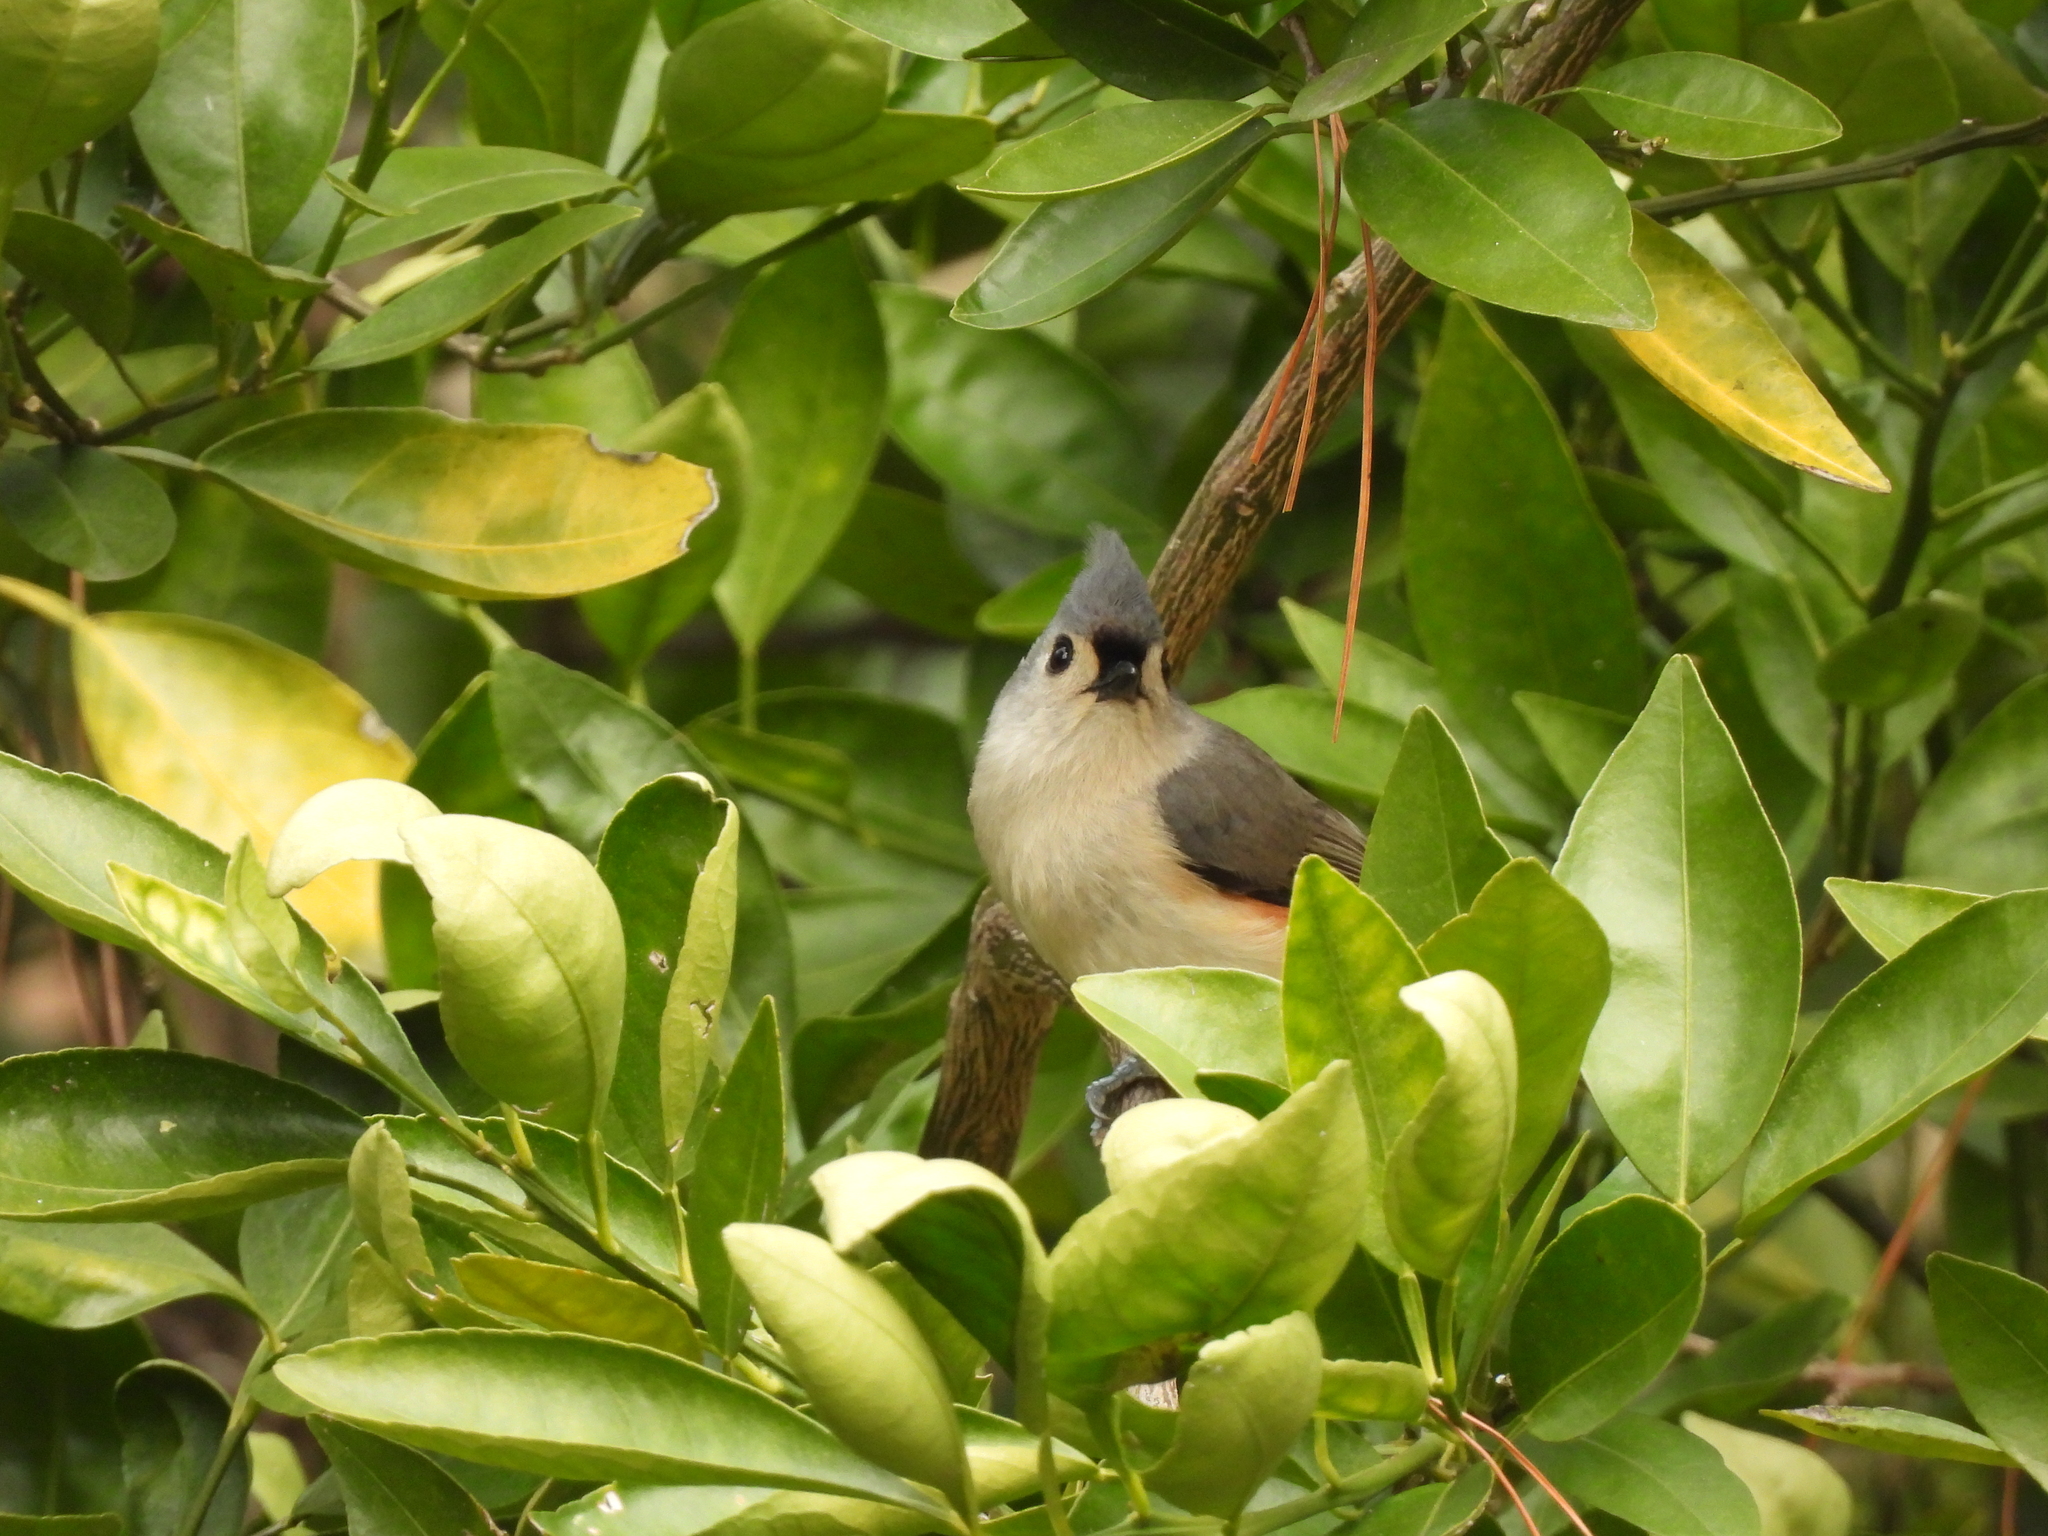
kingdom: Animalia
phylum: Chordata
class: Aves
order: Passeriformes
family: Paridae
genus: Baeolophus
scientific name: Baeolophus bicolor
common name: Tufted titmouse
